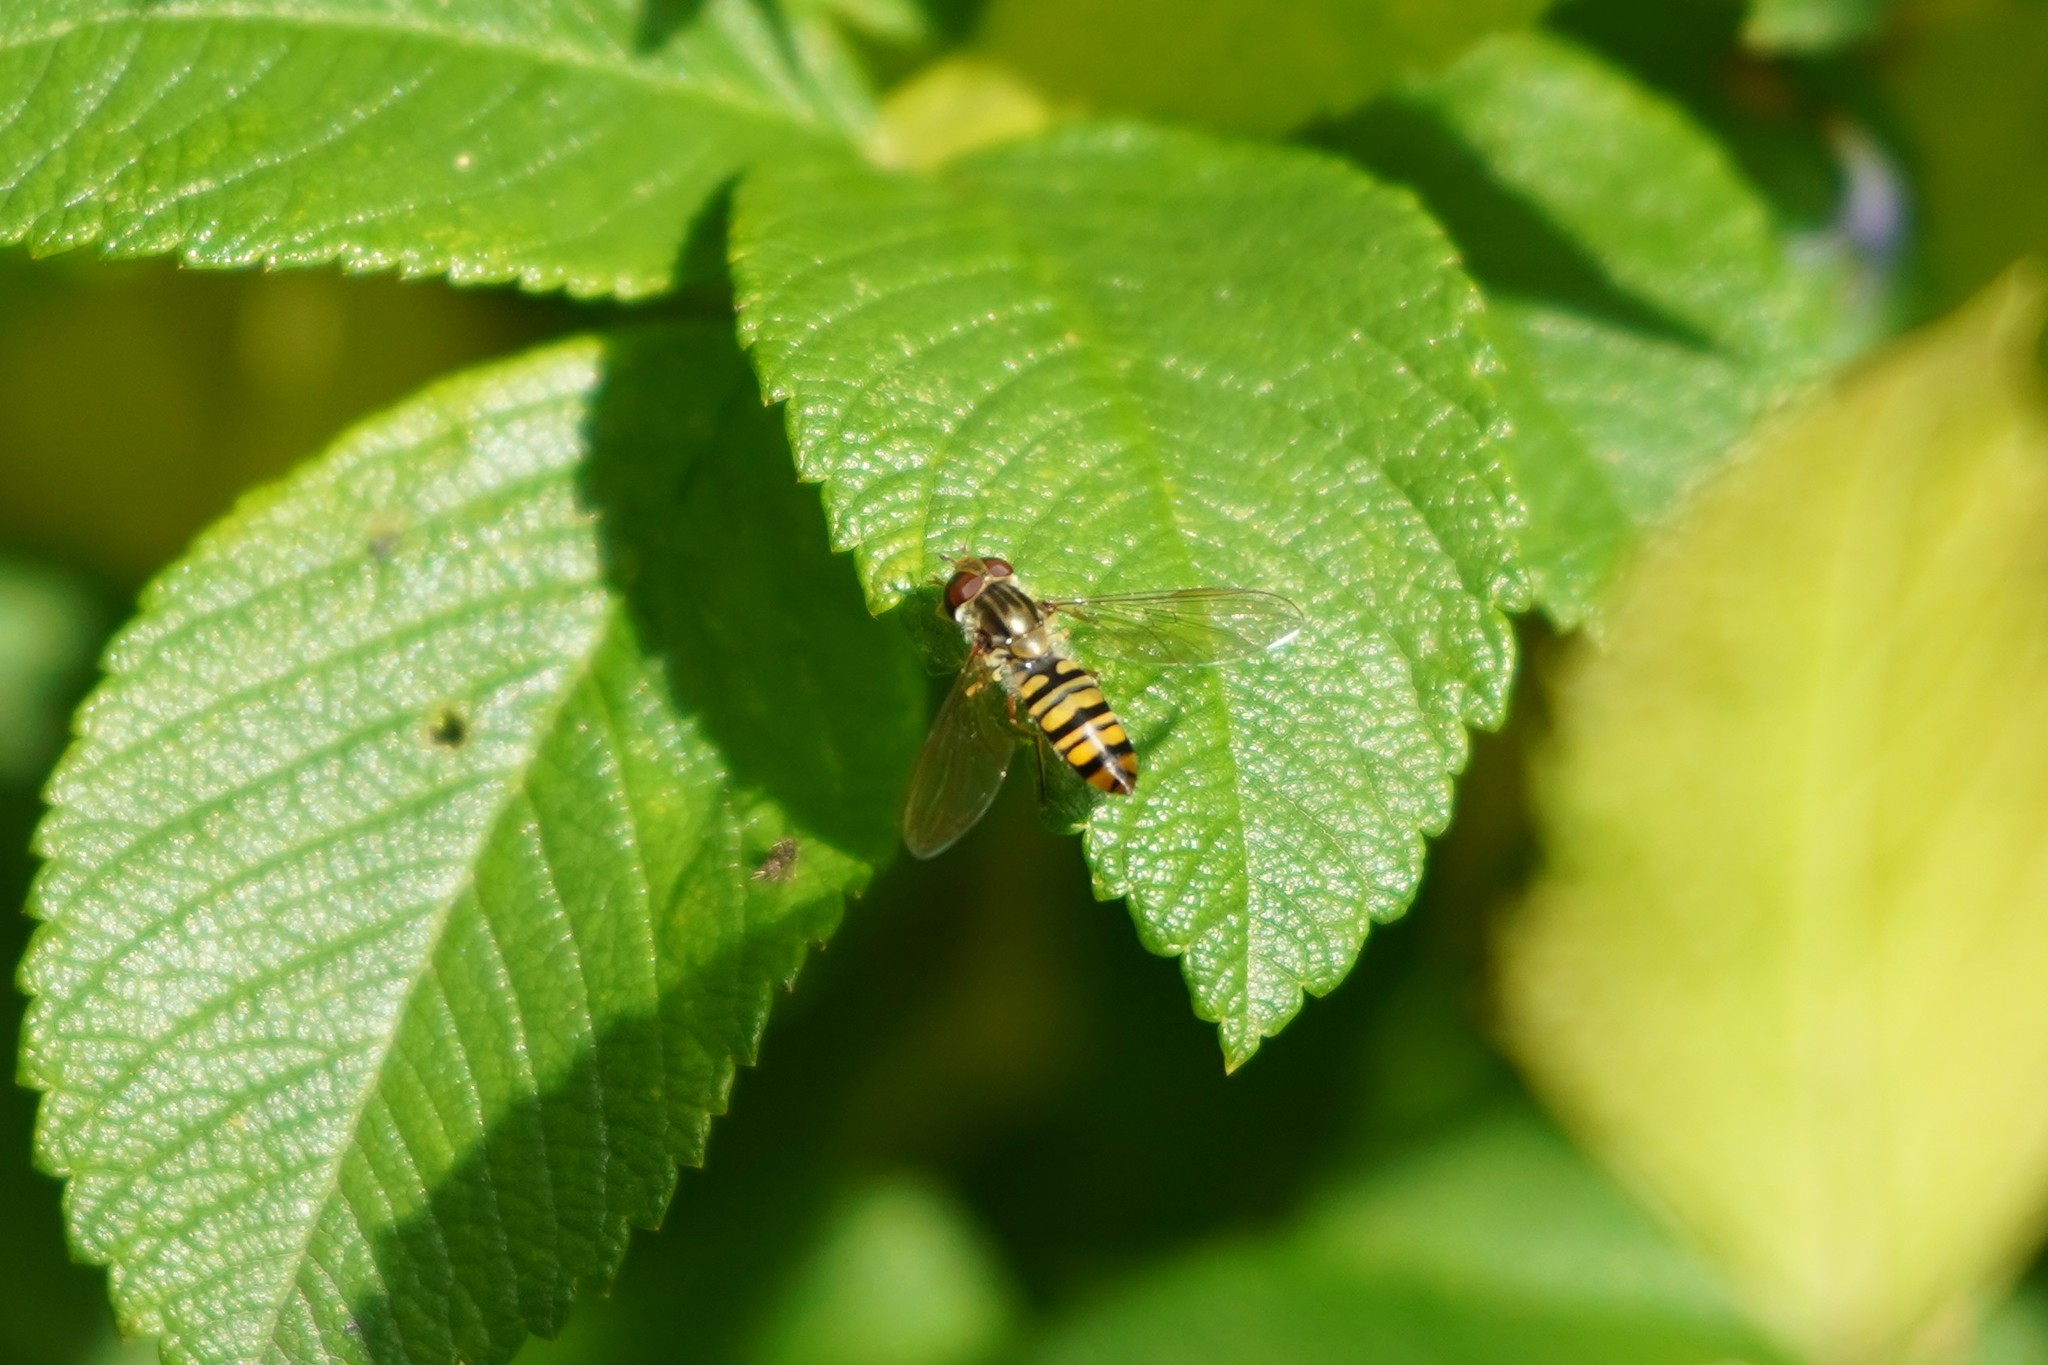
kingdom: Animalia
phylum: Arthropoda
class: Insecta
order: Diptera
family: Syrphidae
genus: Episyrphus
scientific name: Episyrphus balteatus
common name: Marmalade hoverfly
